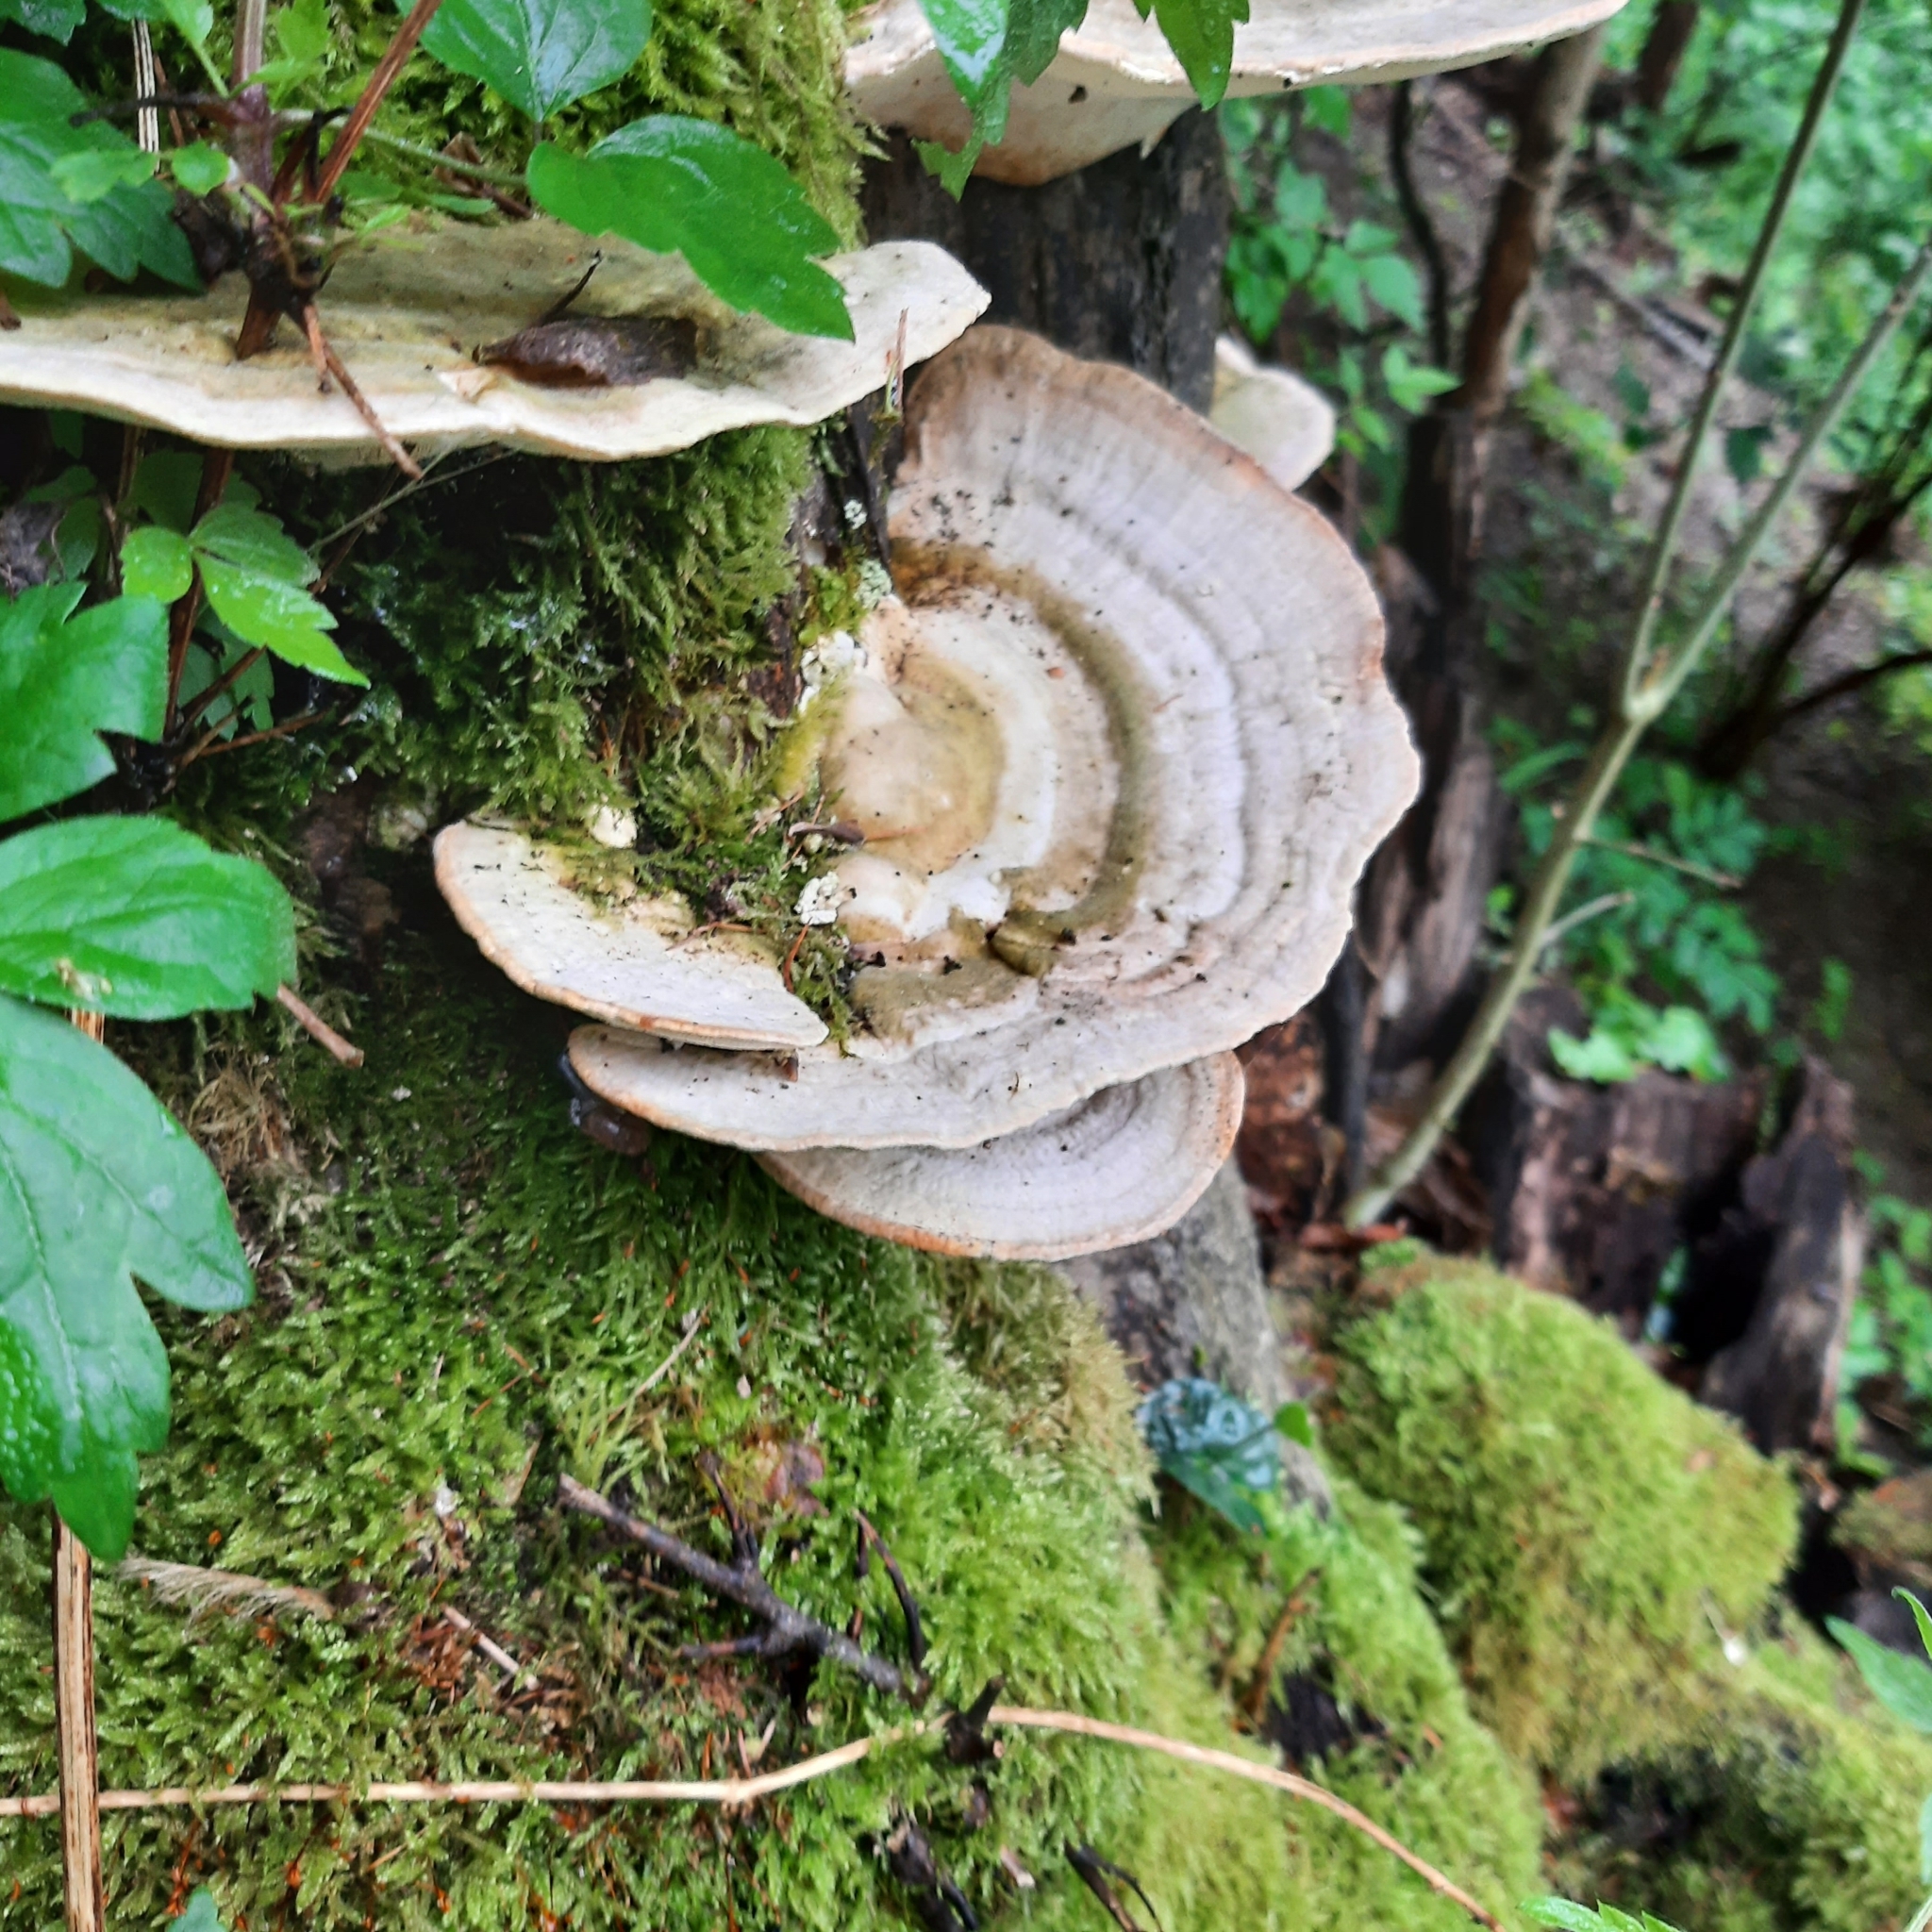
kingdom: Fungi
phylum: Basidiomycota
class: Agaricomycetes
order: Polyporales
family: Polyporaceae
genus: Trametes
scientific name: Trametes gibbosa
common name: Lumpy bracket
